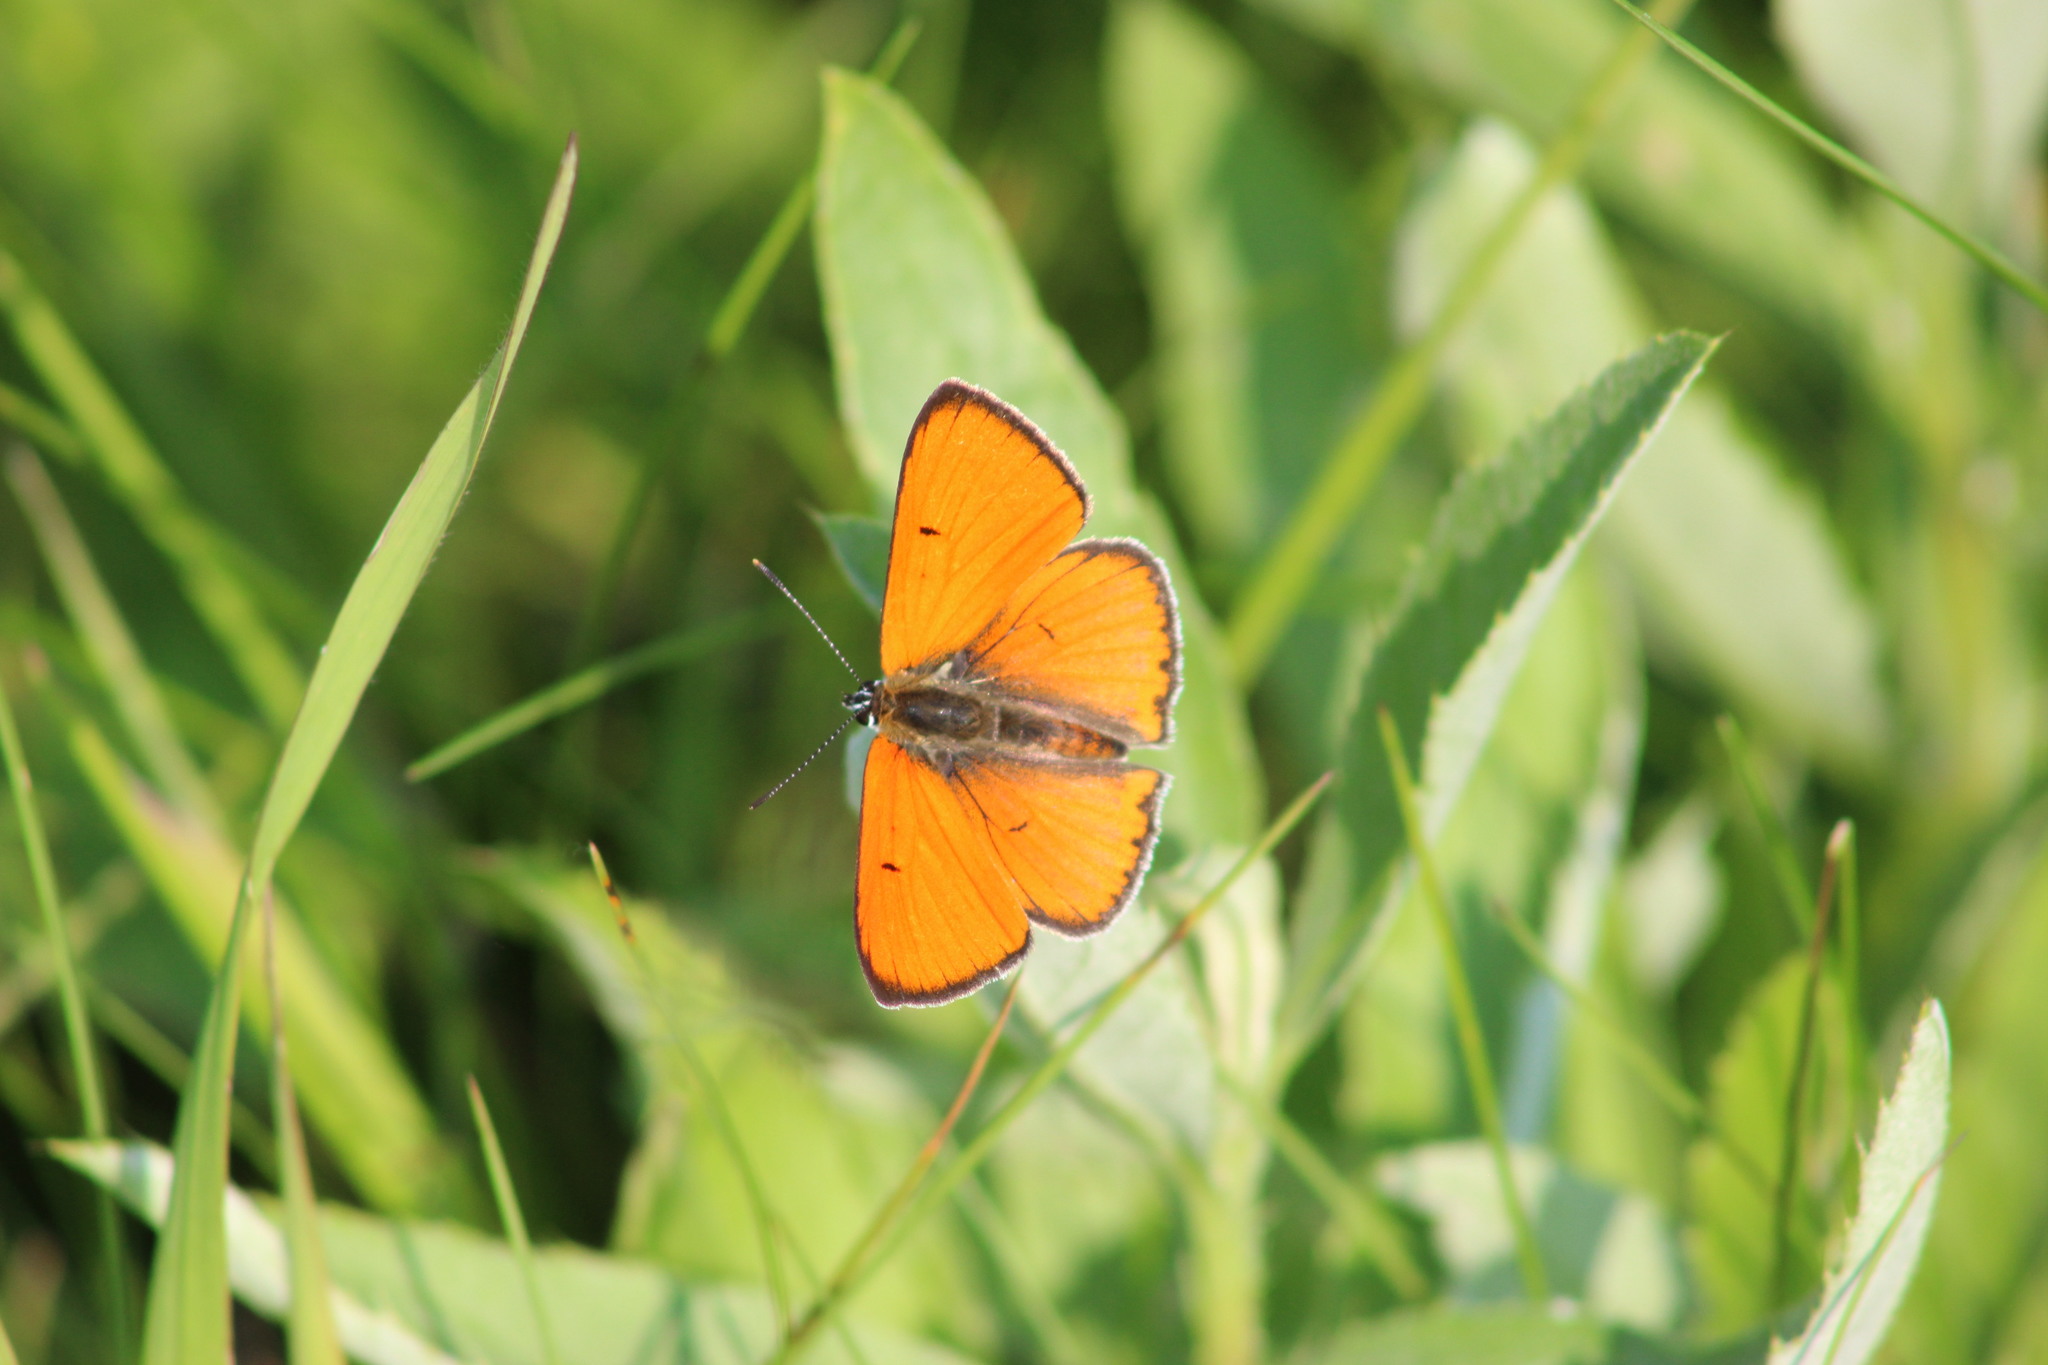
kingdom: Animalia
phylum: Arthropoda
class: Insecta
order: Lepidoptera
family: Lycaenidae
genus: Lycaena
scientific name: Lycaena dispar
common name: Large copper
